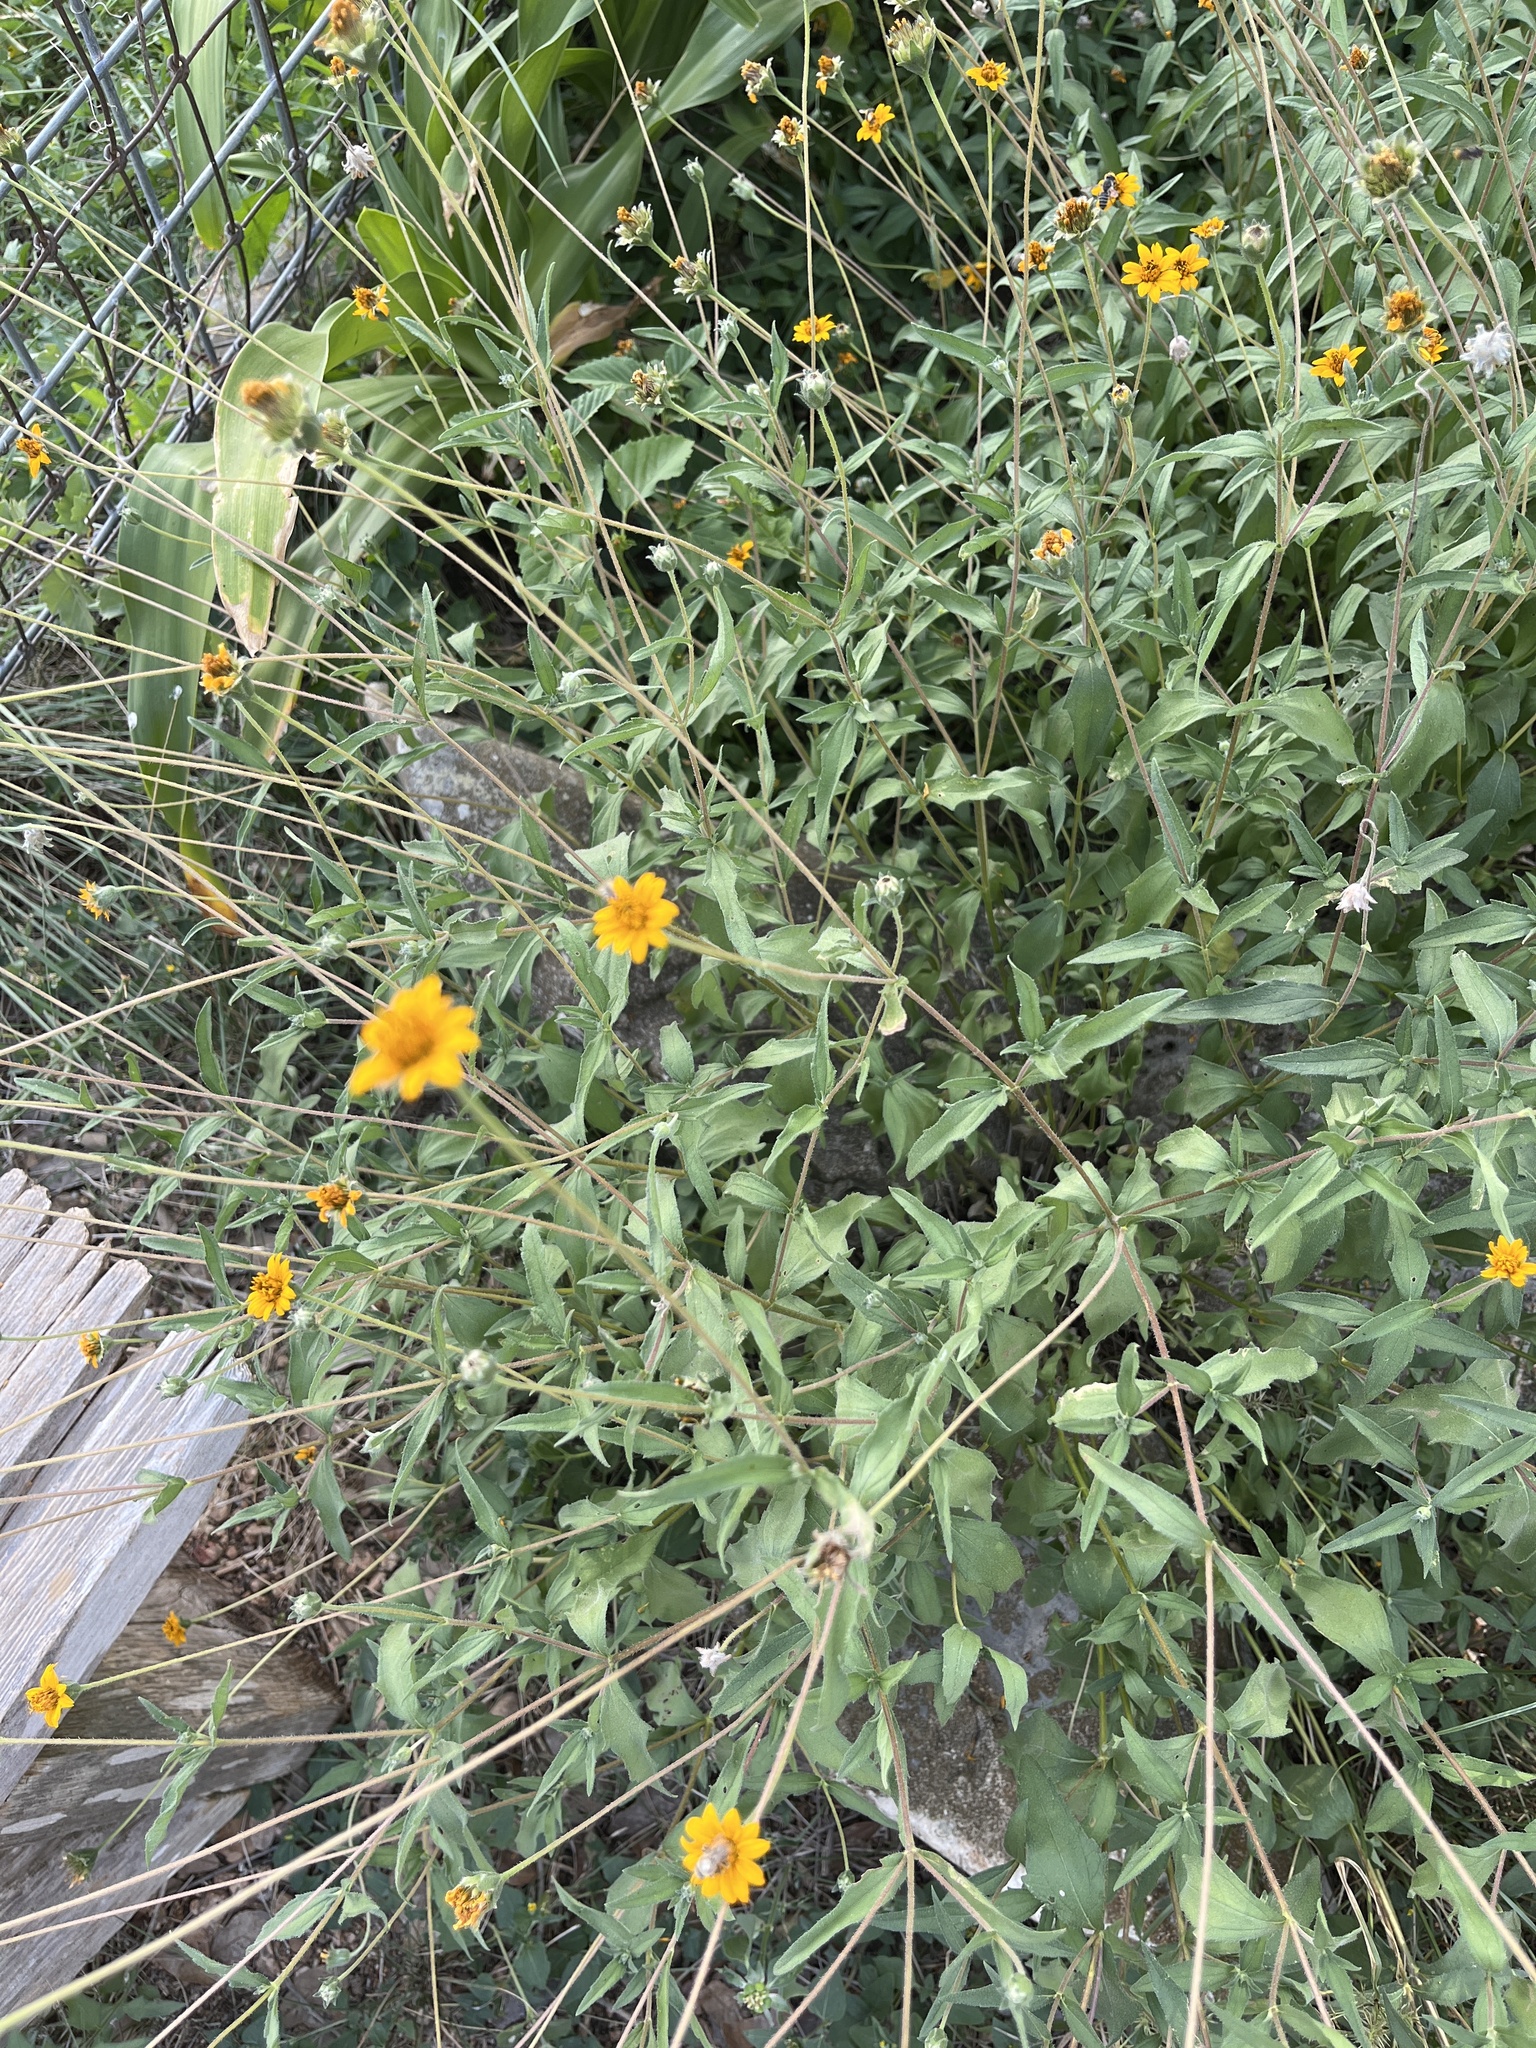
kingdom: Plantae
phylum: Tracheophyta
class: Magnoliopsida
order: Asterales
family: Asteraceae
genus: Wedelia
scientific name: Wedelia acapulcensis
